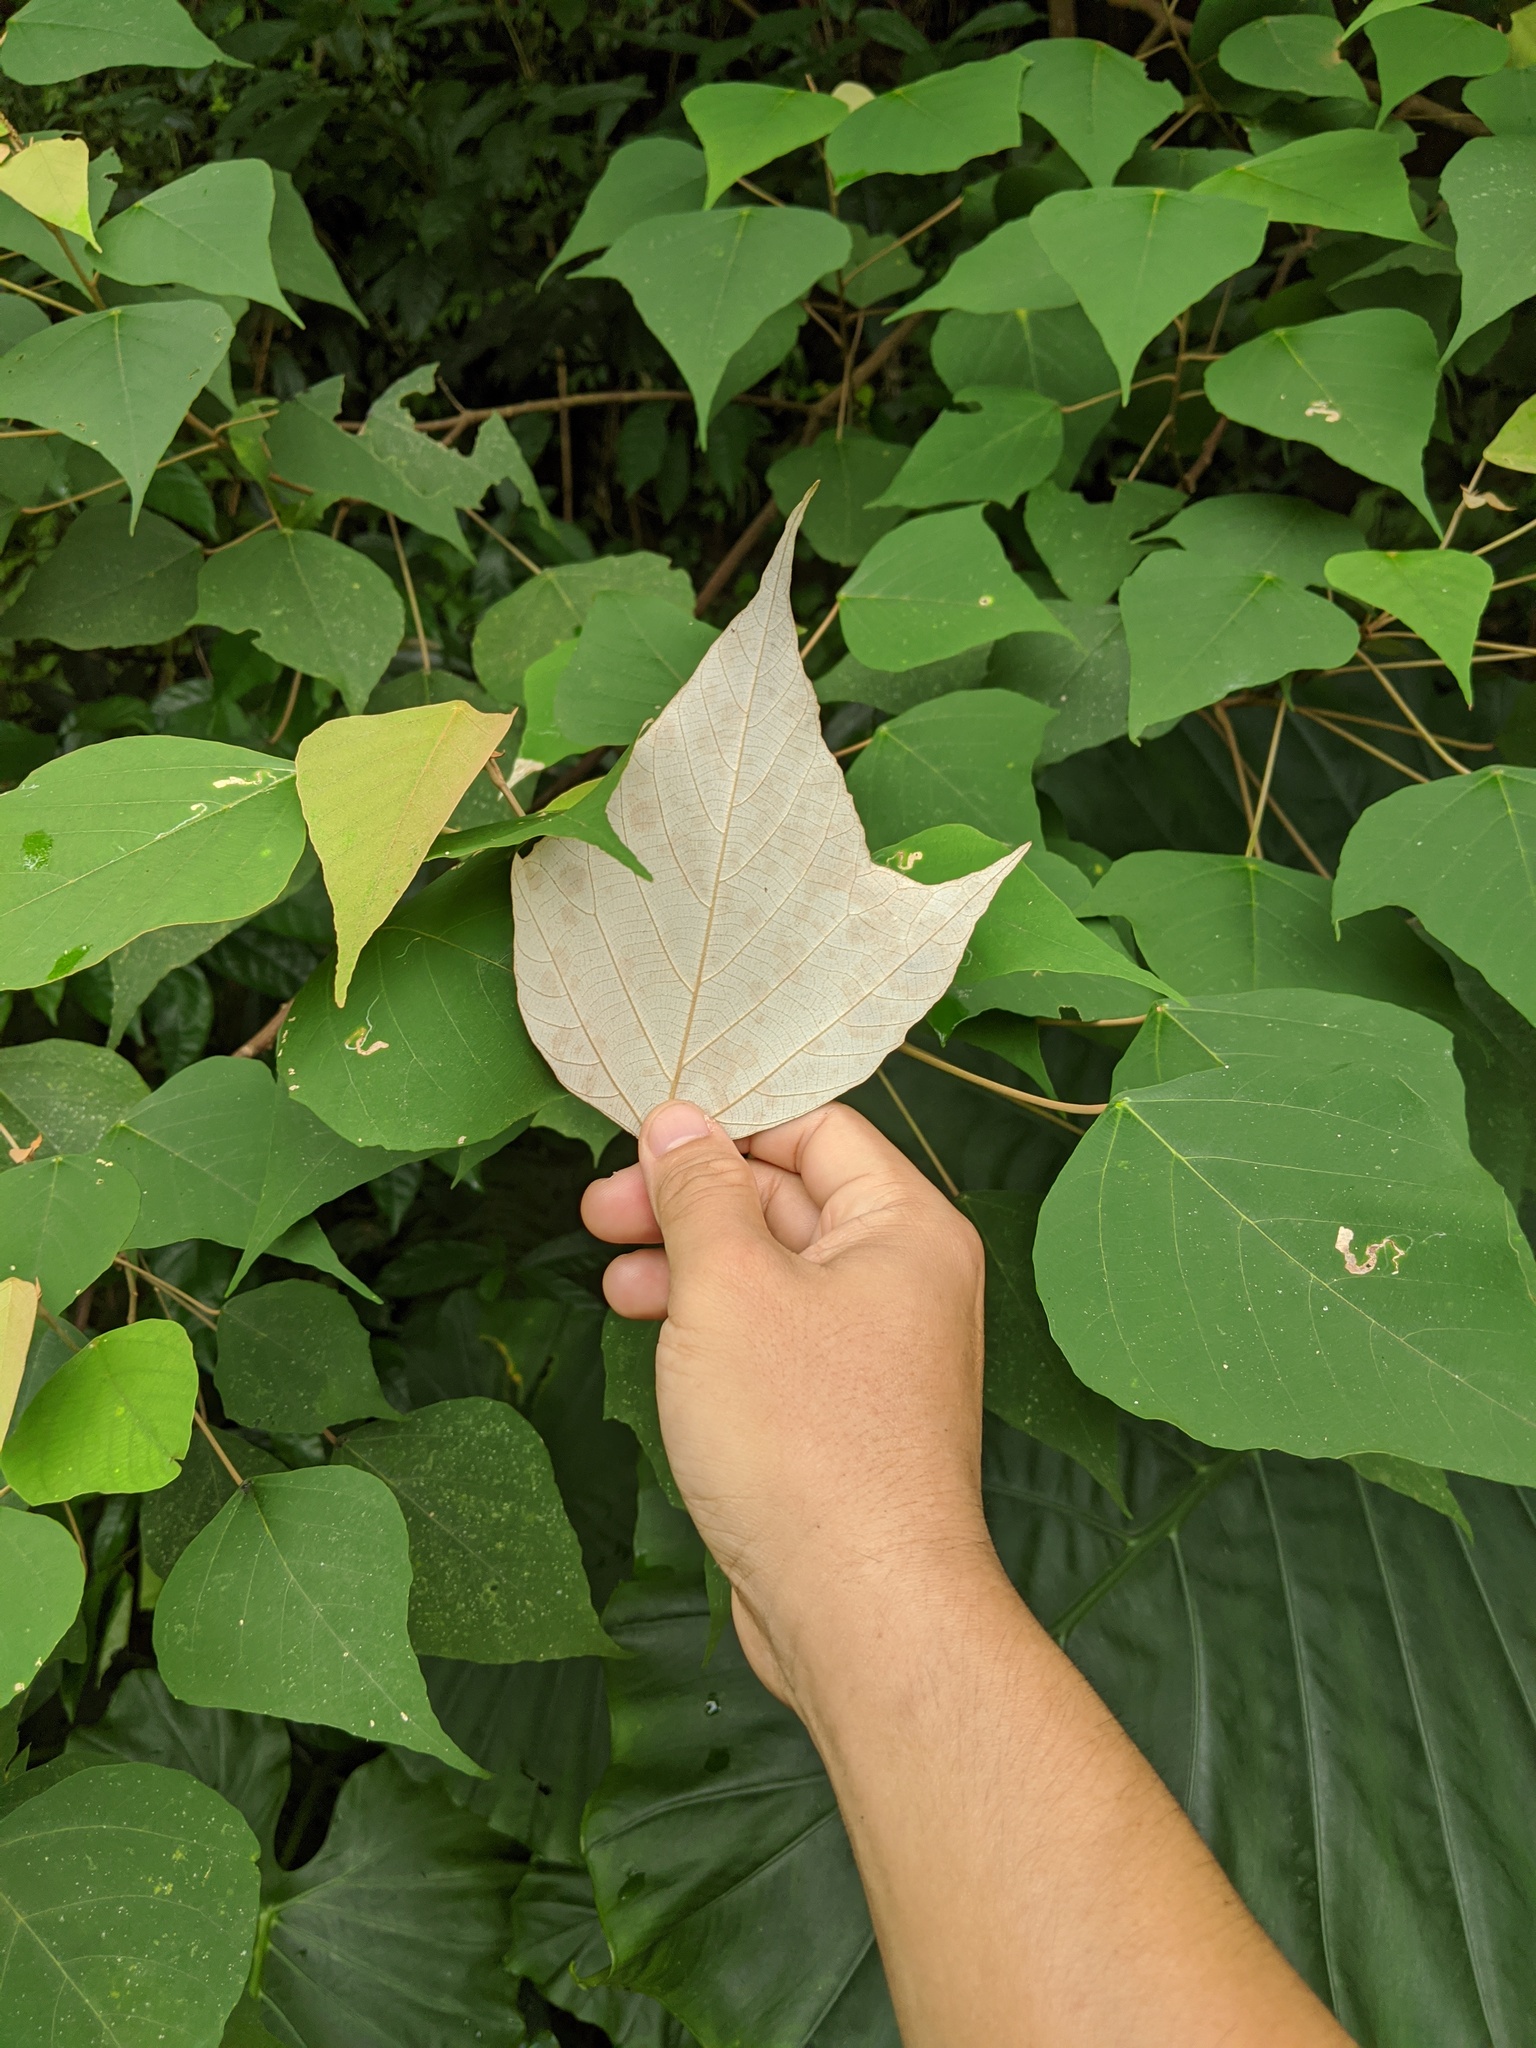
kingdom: Plantae
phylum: Tracheophyta
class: Magnoliopsida
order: Malpighiales
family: Euphorbiaceae
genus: Mallotus
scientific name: Mallotus paniculatus
